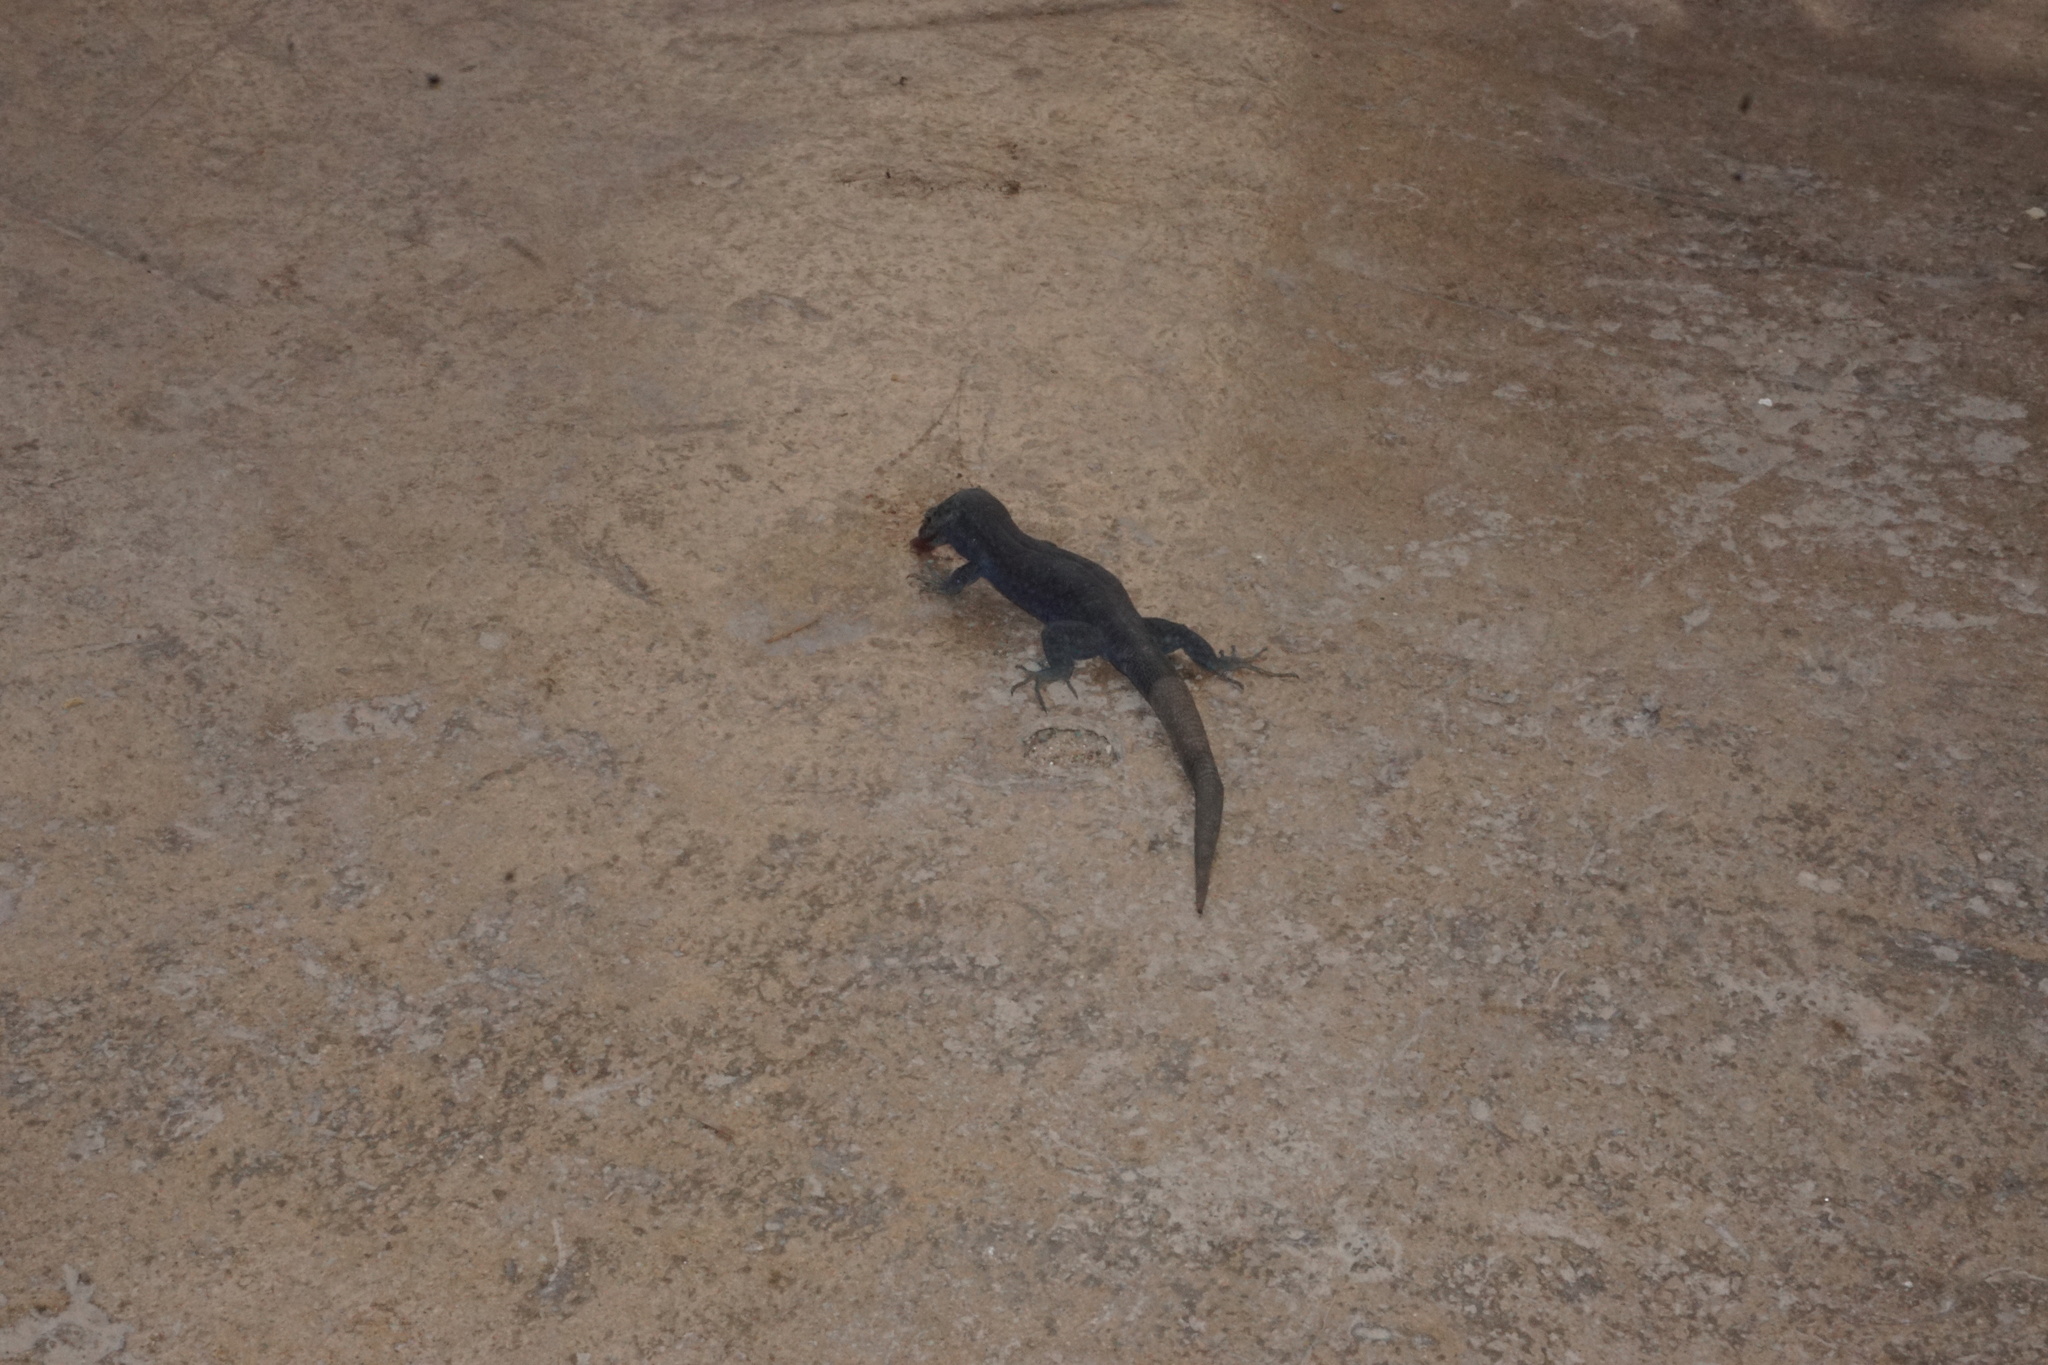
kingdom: Animalia
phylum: Chordata
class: Squamata
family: Lacertidae
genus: Podarcis
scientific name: Podarcis lilfordi
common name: Belearic lizard
